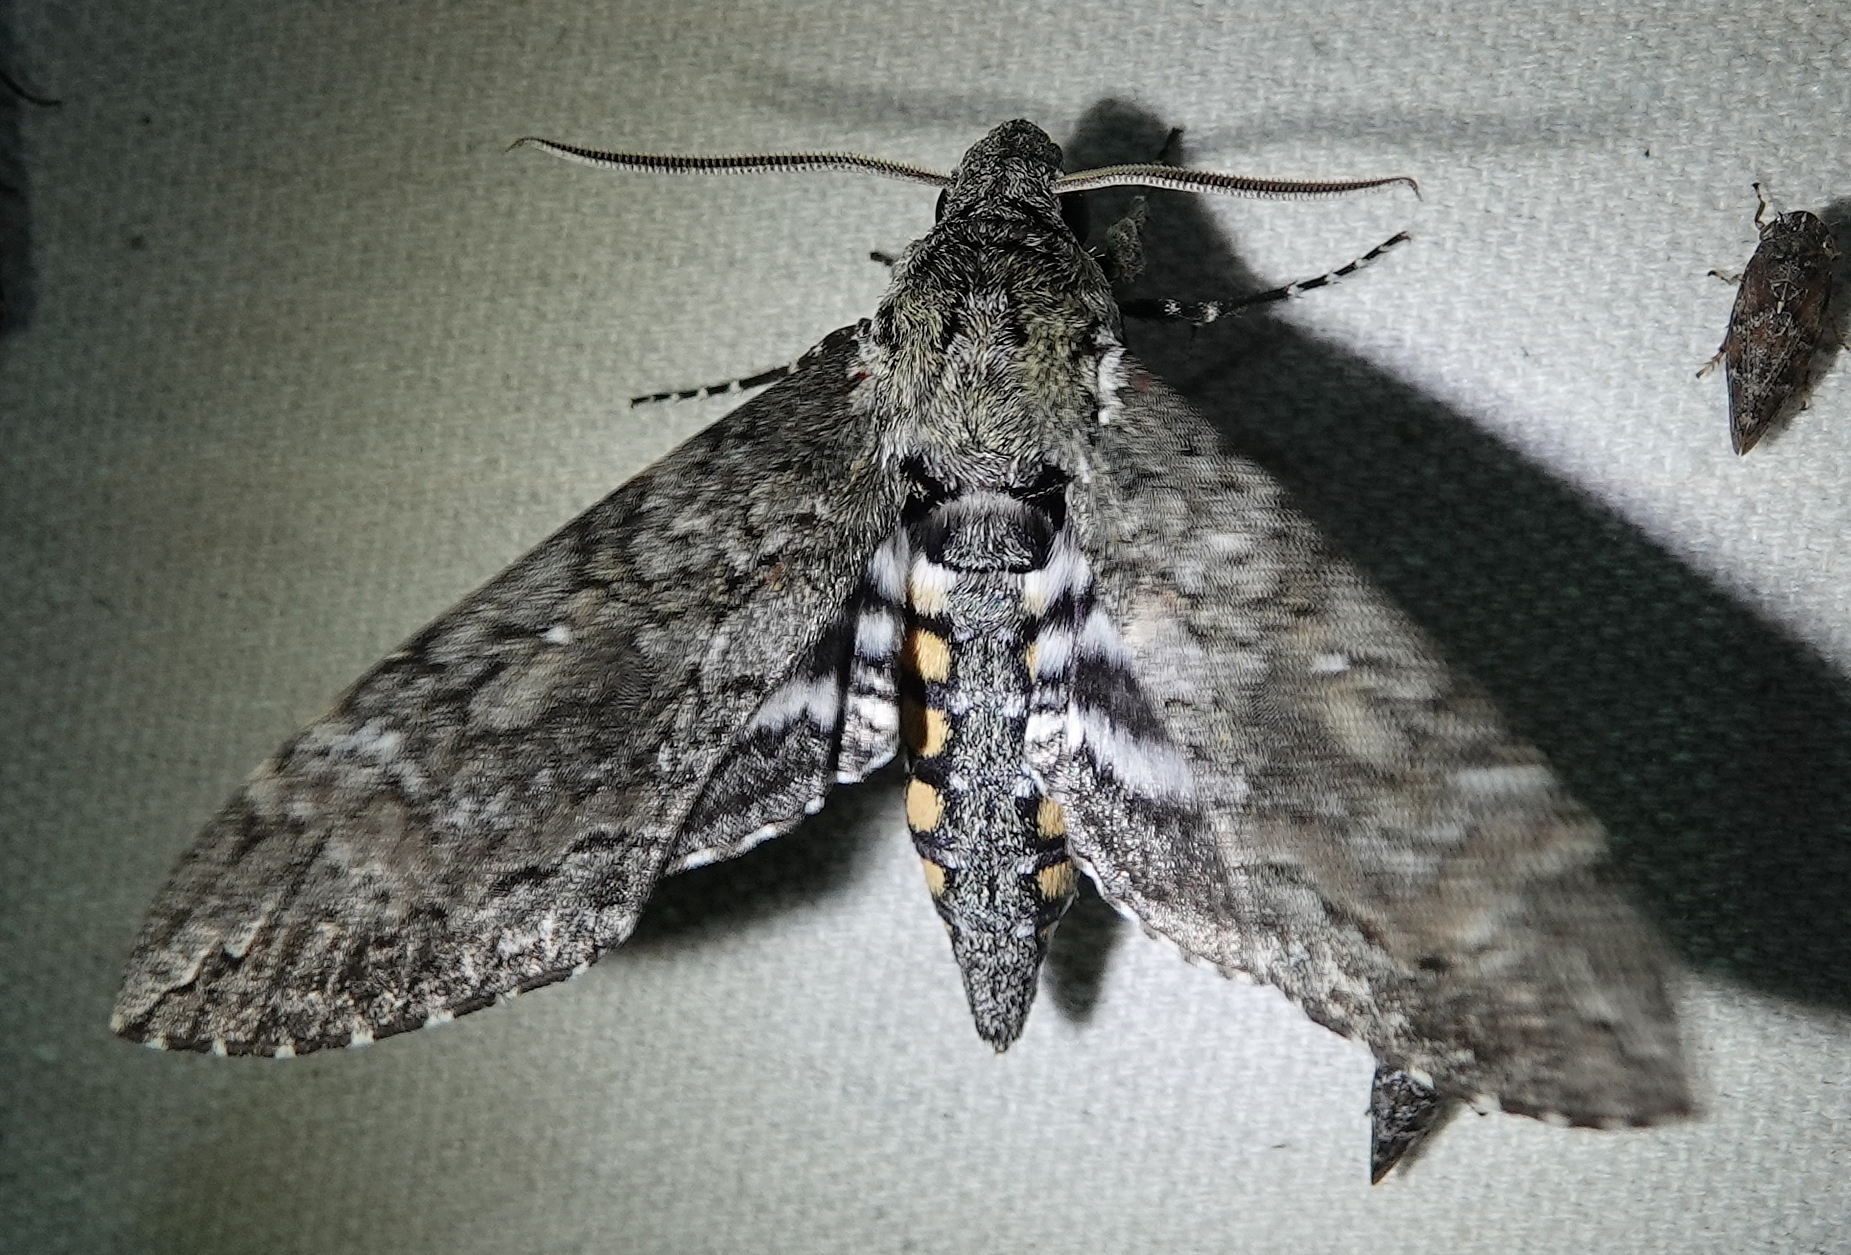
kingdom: Animalia
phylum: Arthropoda
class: Insecta
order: Lepidoptera
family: Sphingidae
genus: Manduca
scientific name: Manduca sexta
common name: Carolina sphinx
